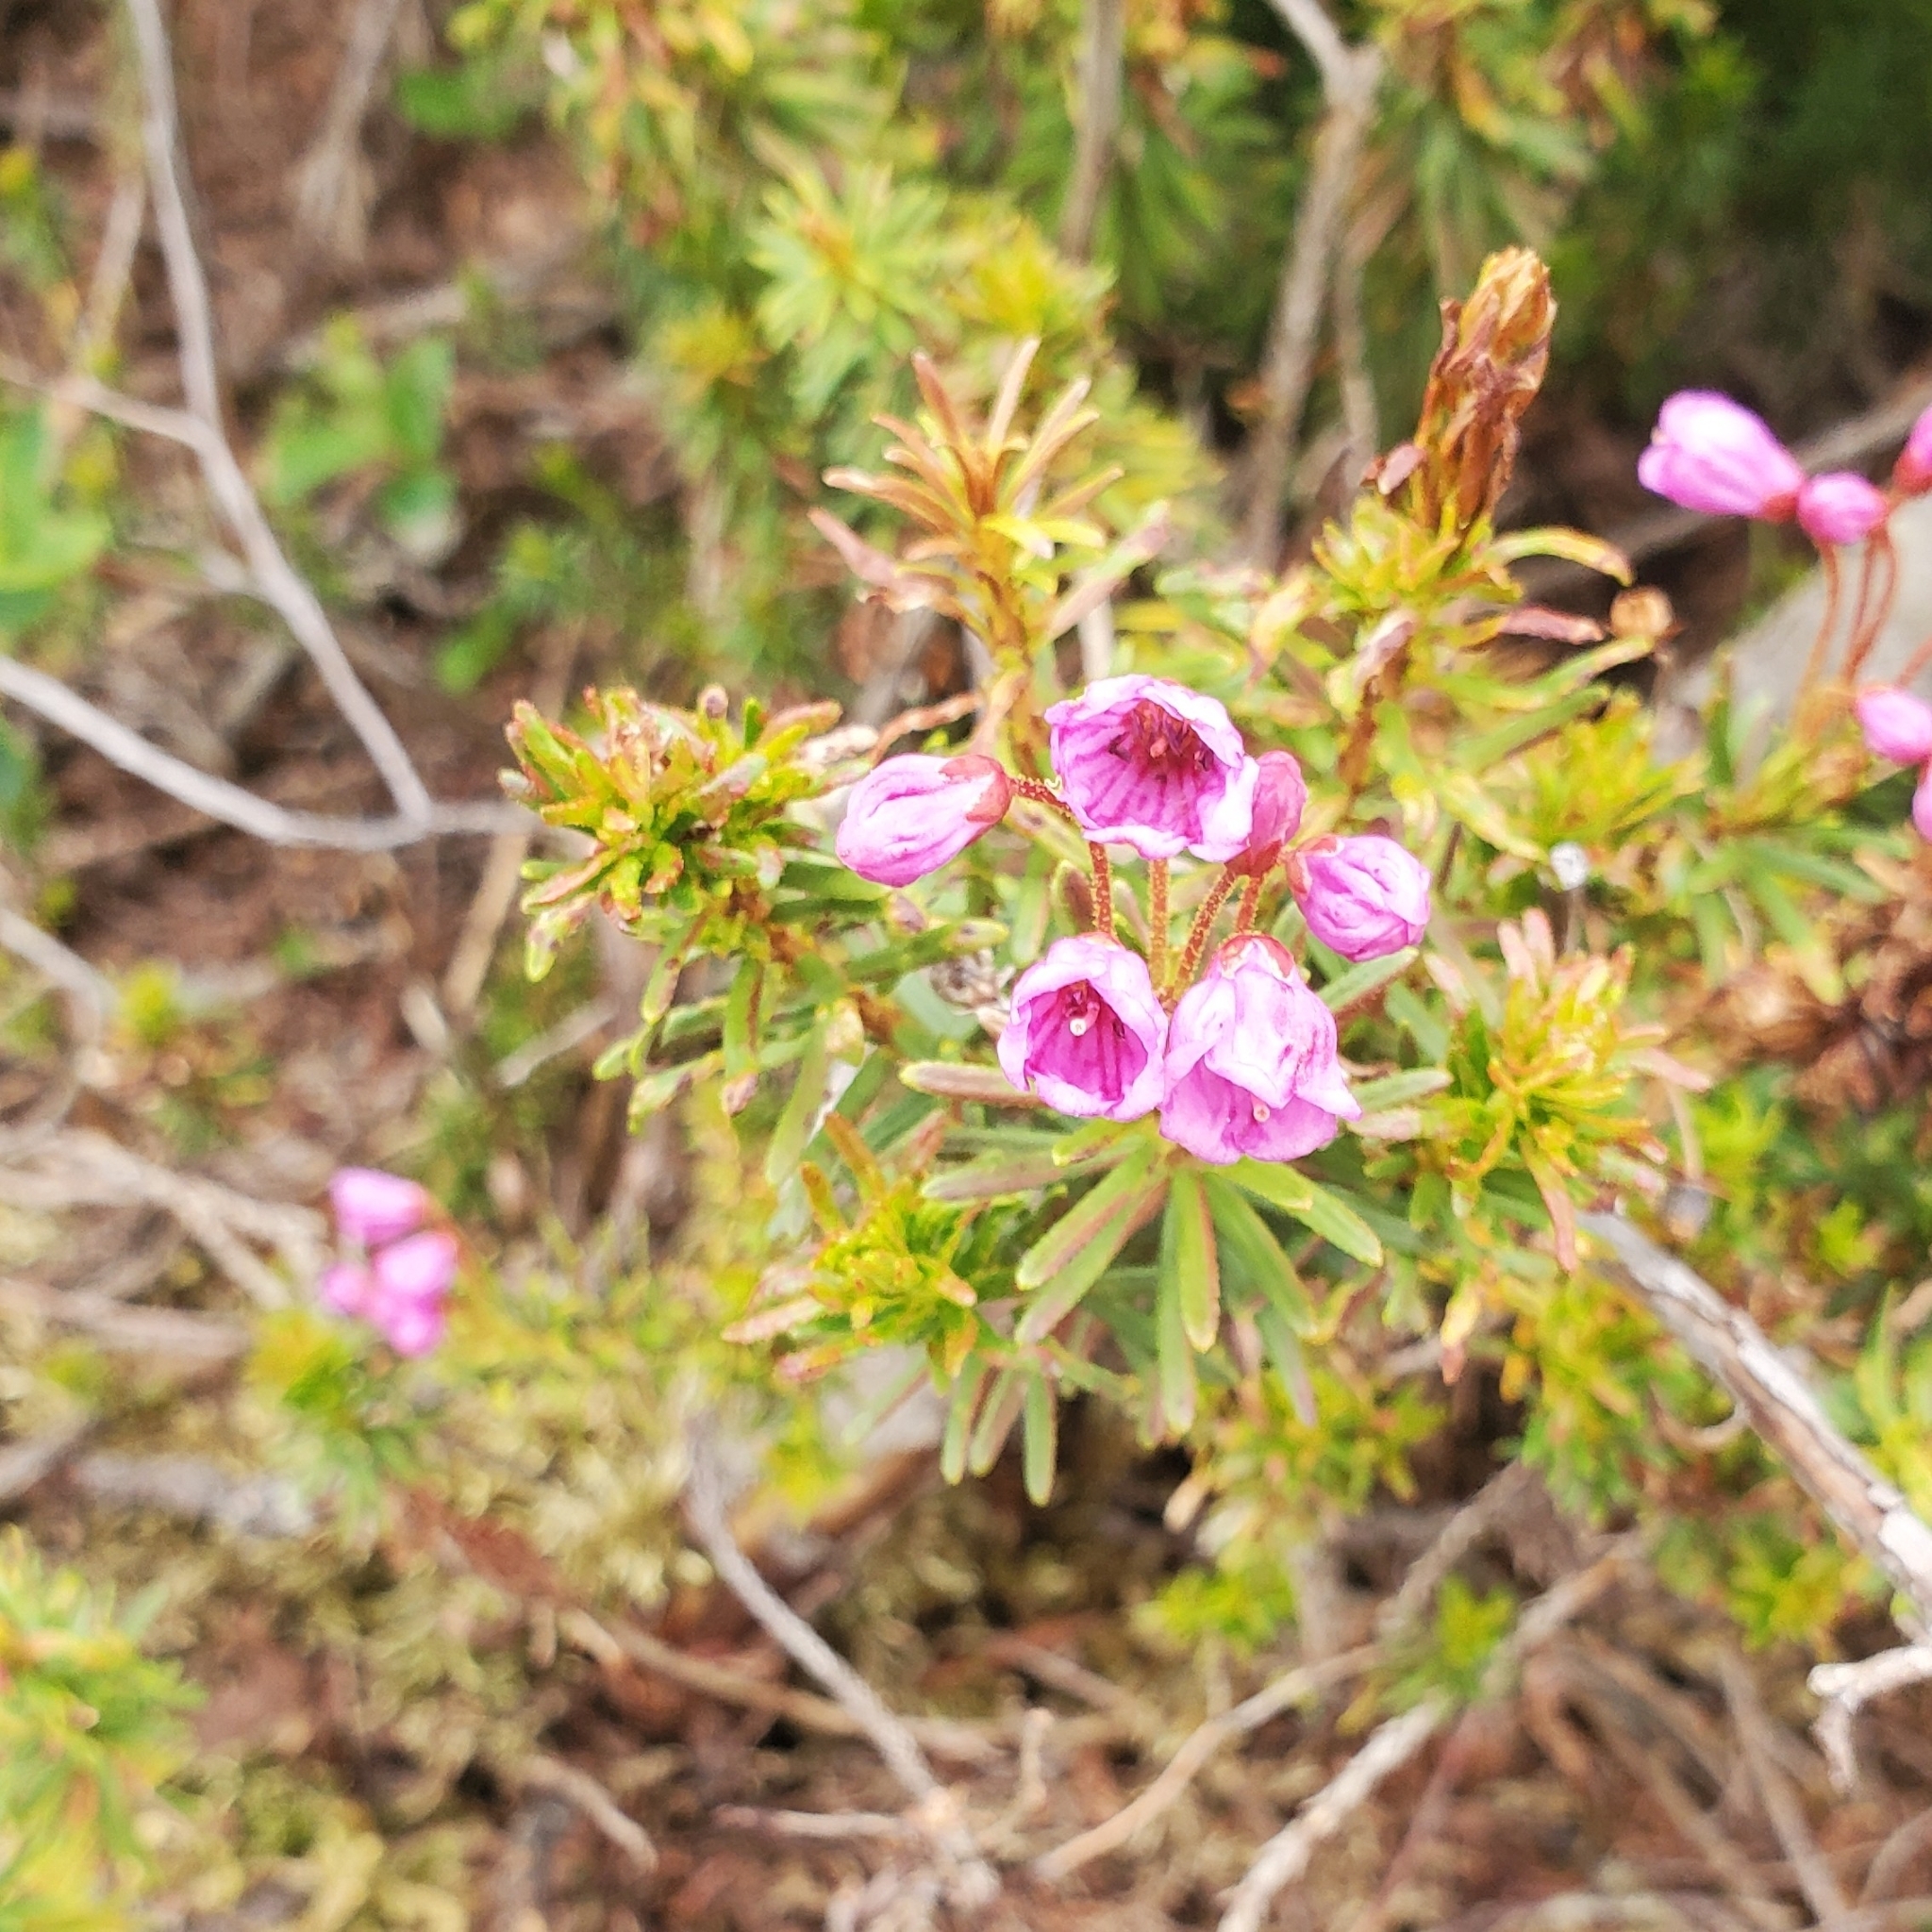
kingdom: Plantae
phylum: Tracheophyta
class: Magnoliopsida
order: Ericales
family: Ericaceae
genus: Phyllodoce
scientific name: Phyllodoce empetriformis
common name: Pink mountain heather
